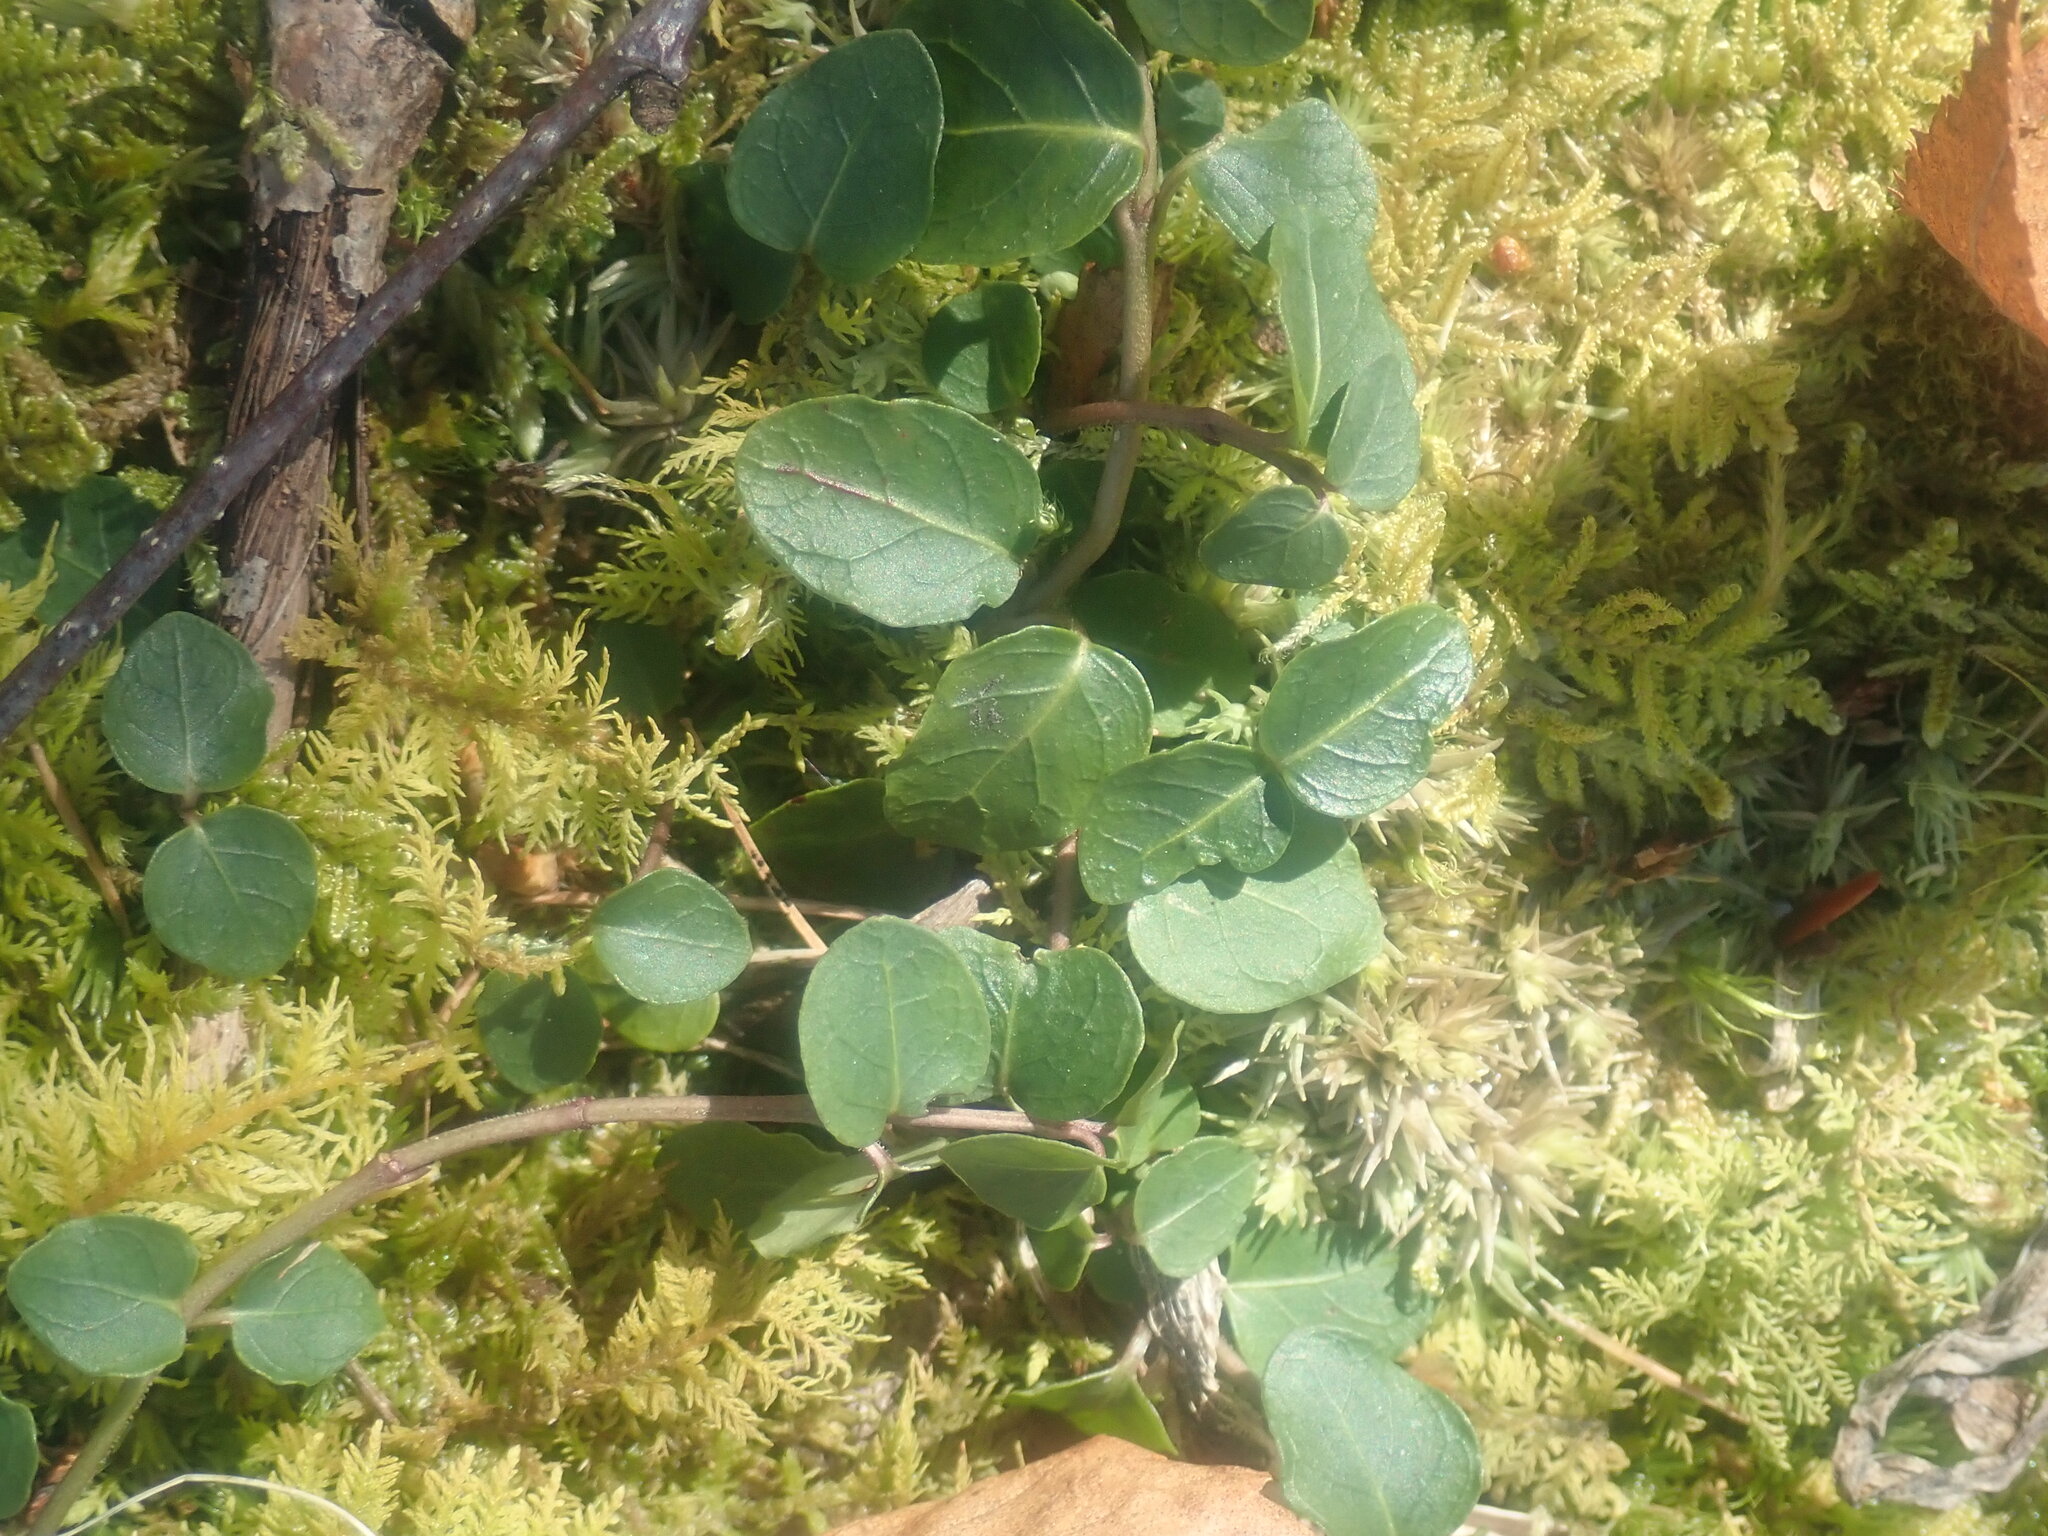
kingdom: Plantae
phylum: Tracheophyta
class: Magnoliopsida
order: Gentianales
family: Rubiaceae
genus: Mitchella
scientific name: Mitchella repens
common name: Partridge-berry
